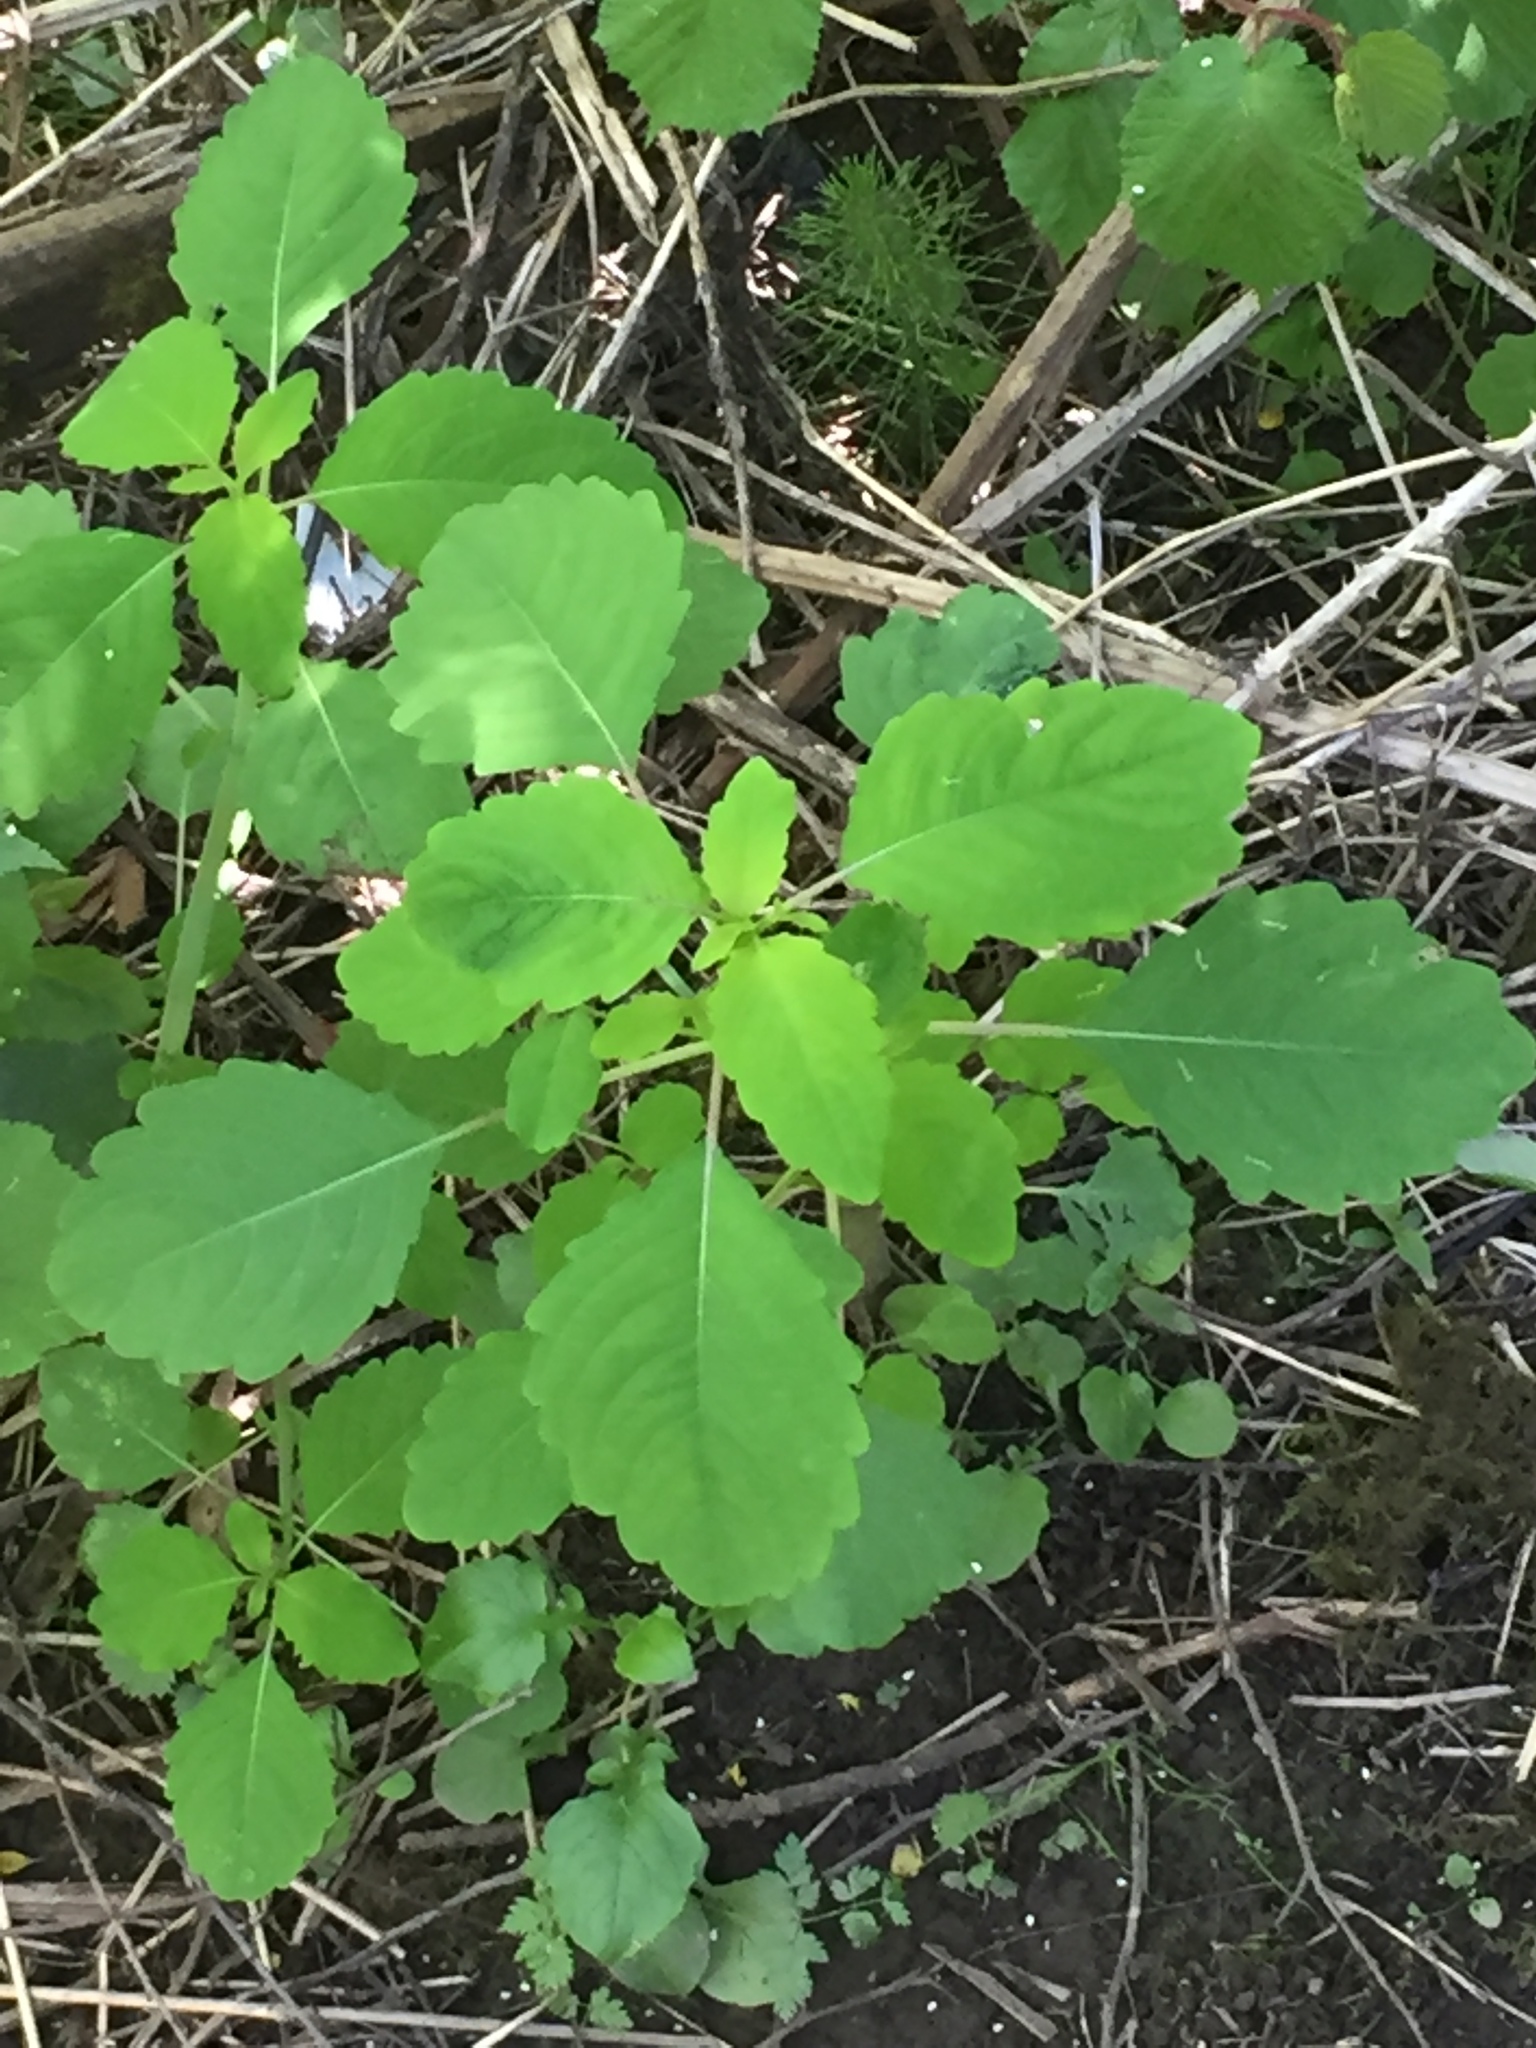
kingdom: Plantae
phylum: Tracheophyta
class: Magnoliopsida
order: Ericales
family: Balsaminaceae
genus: Impatiens
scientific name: Impatiens capensis
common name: Orange balsam
